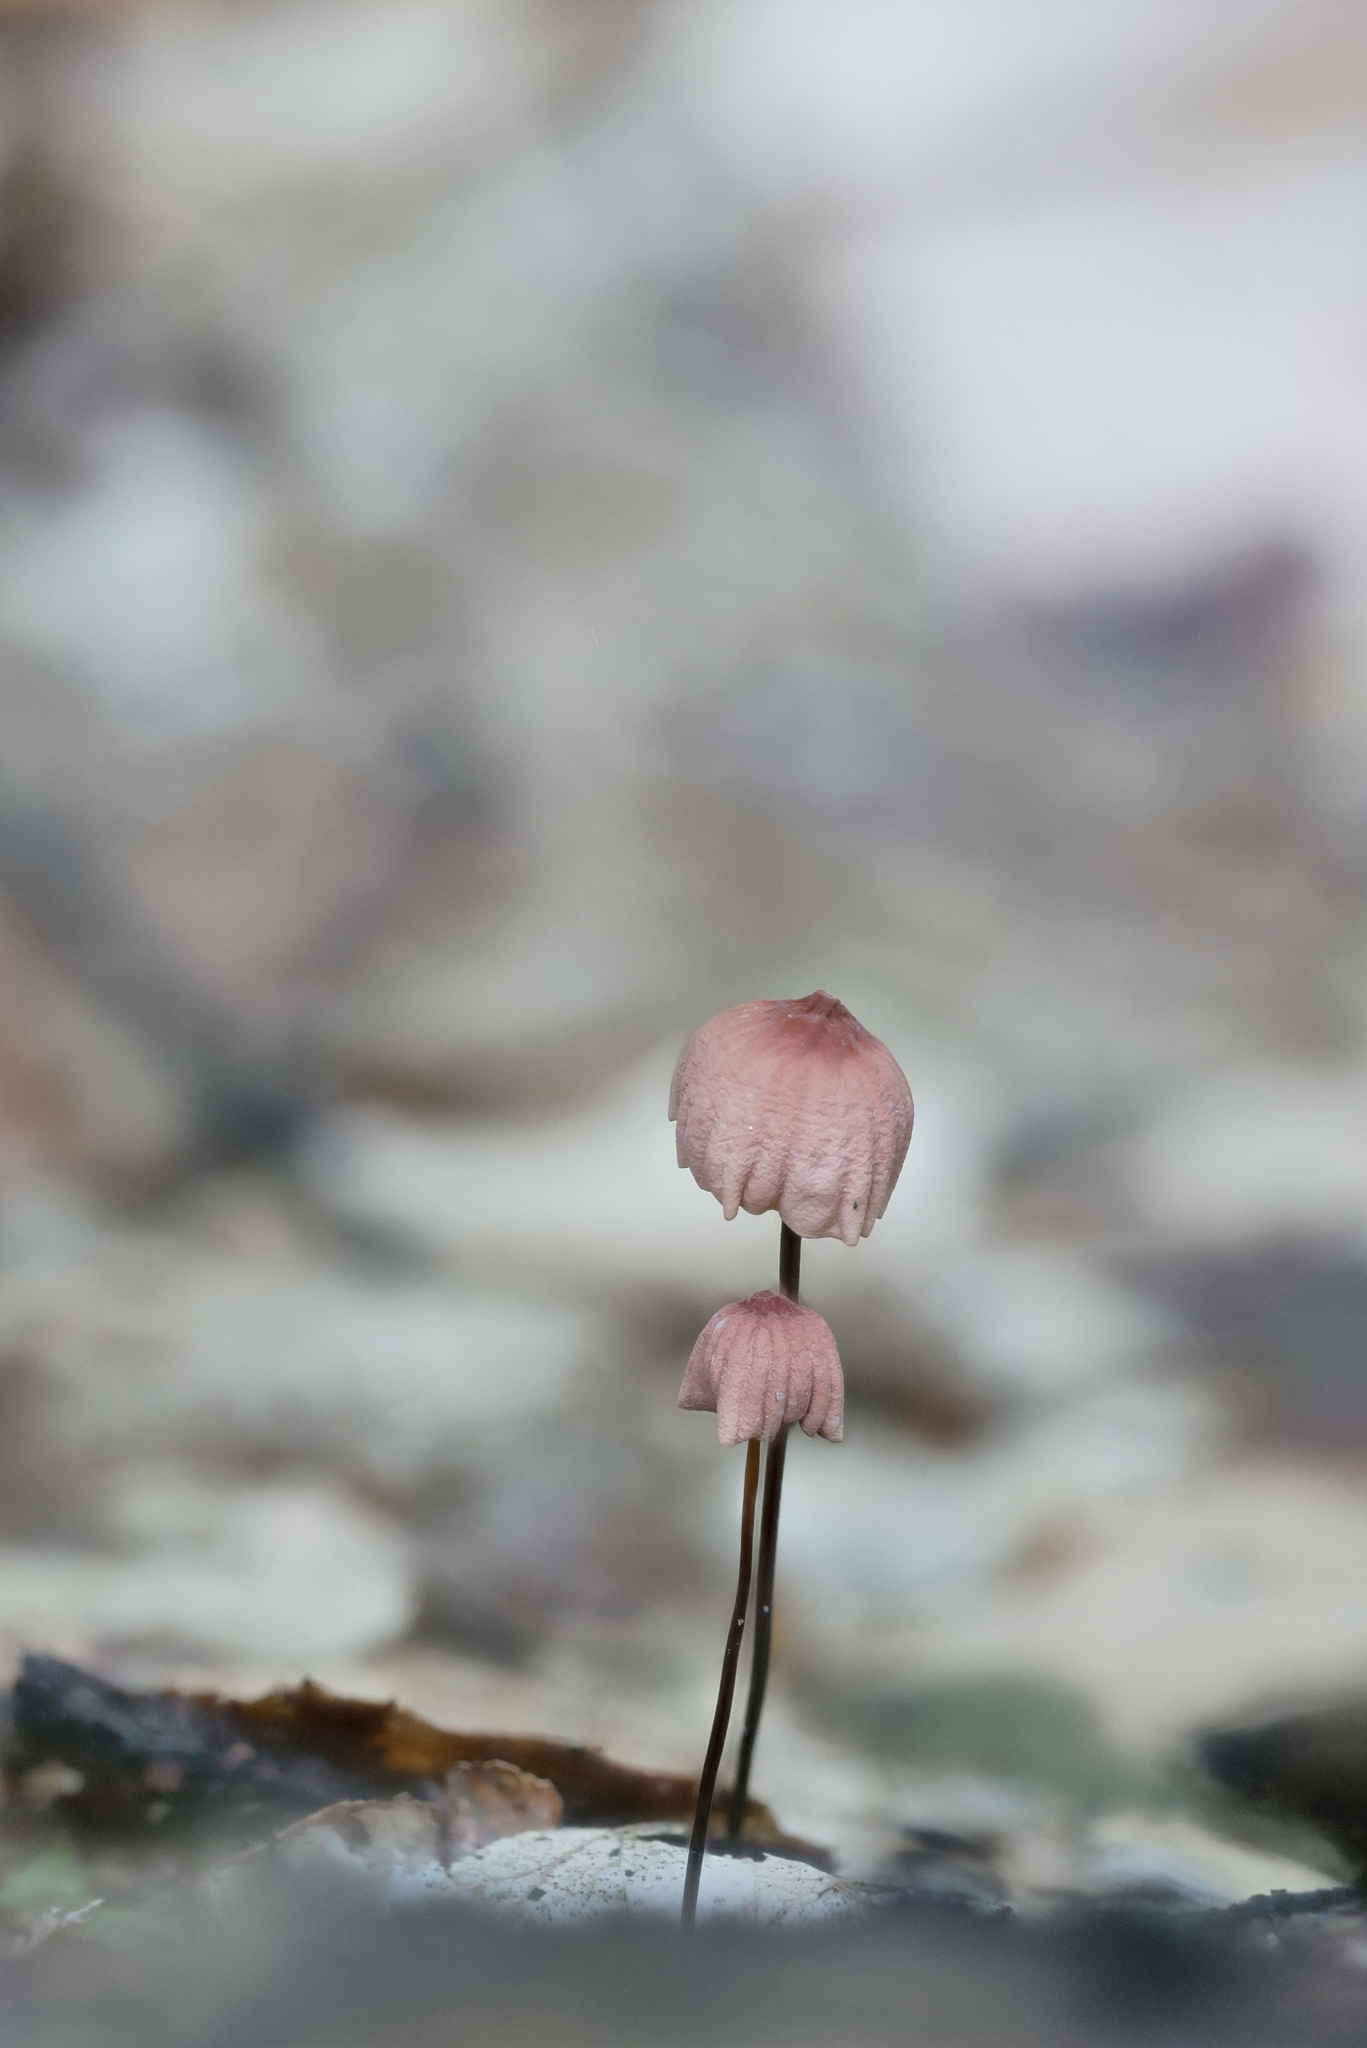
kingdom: Fungi
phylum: Basidiomycota
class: Agaricomycetes
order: Agaricales
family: Marasmiaceae
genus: Marasmius
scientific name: Marasmius pulcherripes
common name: Rosy parachute
